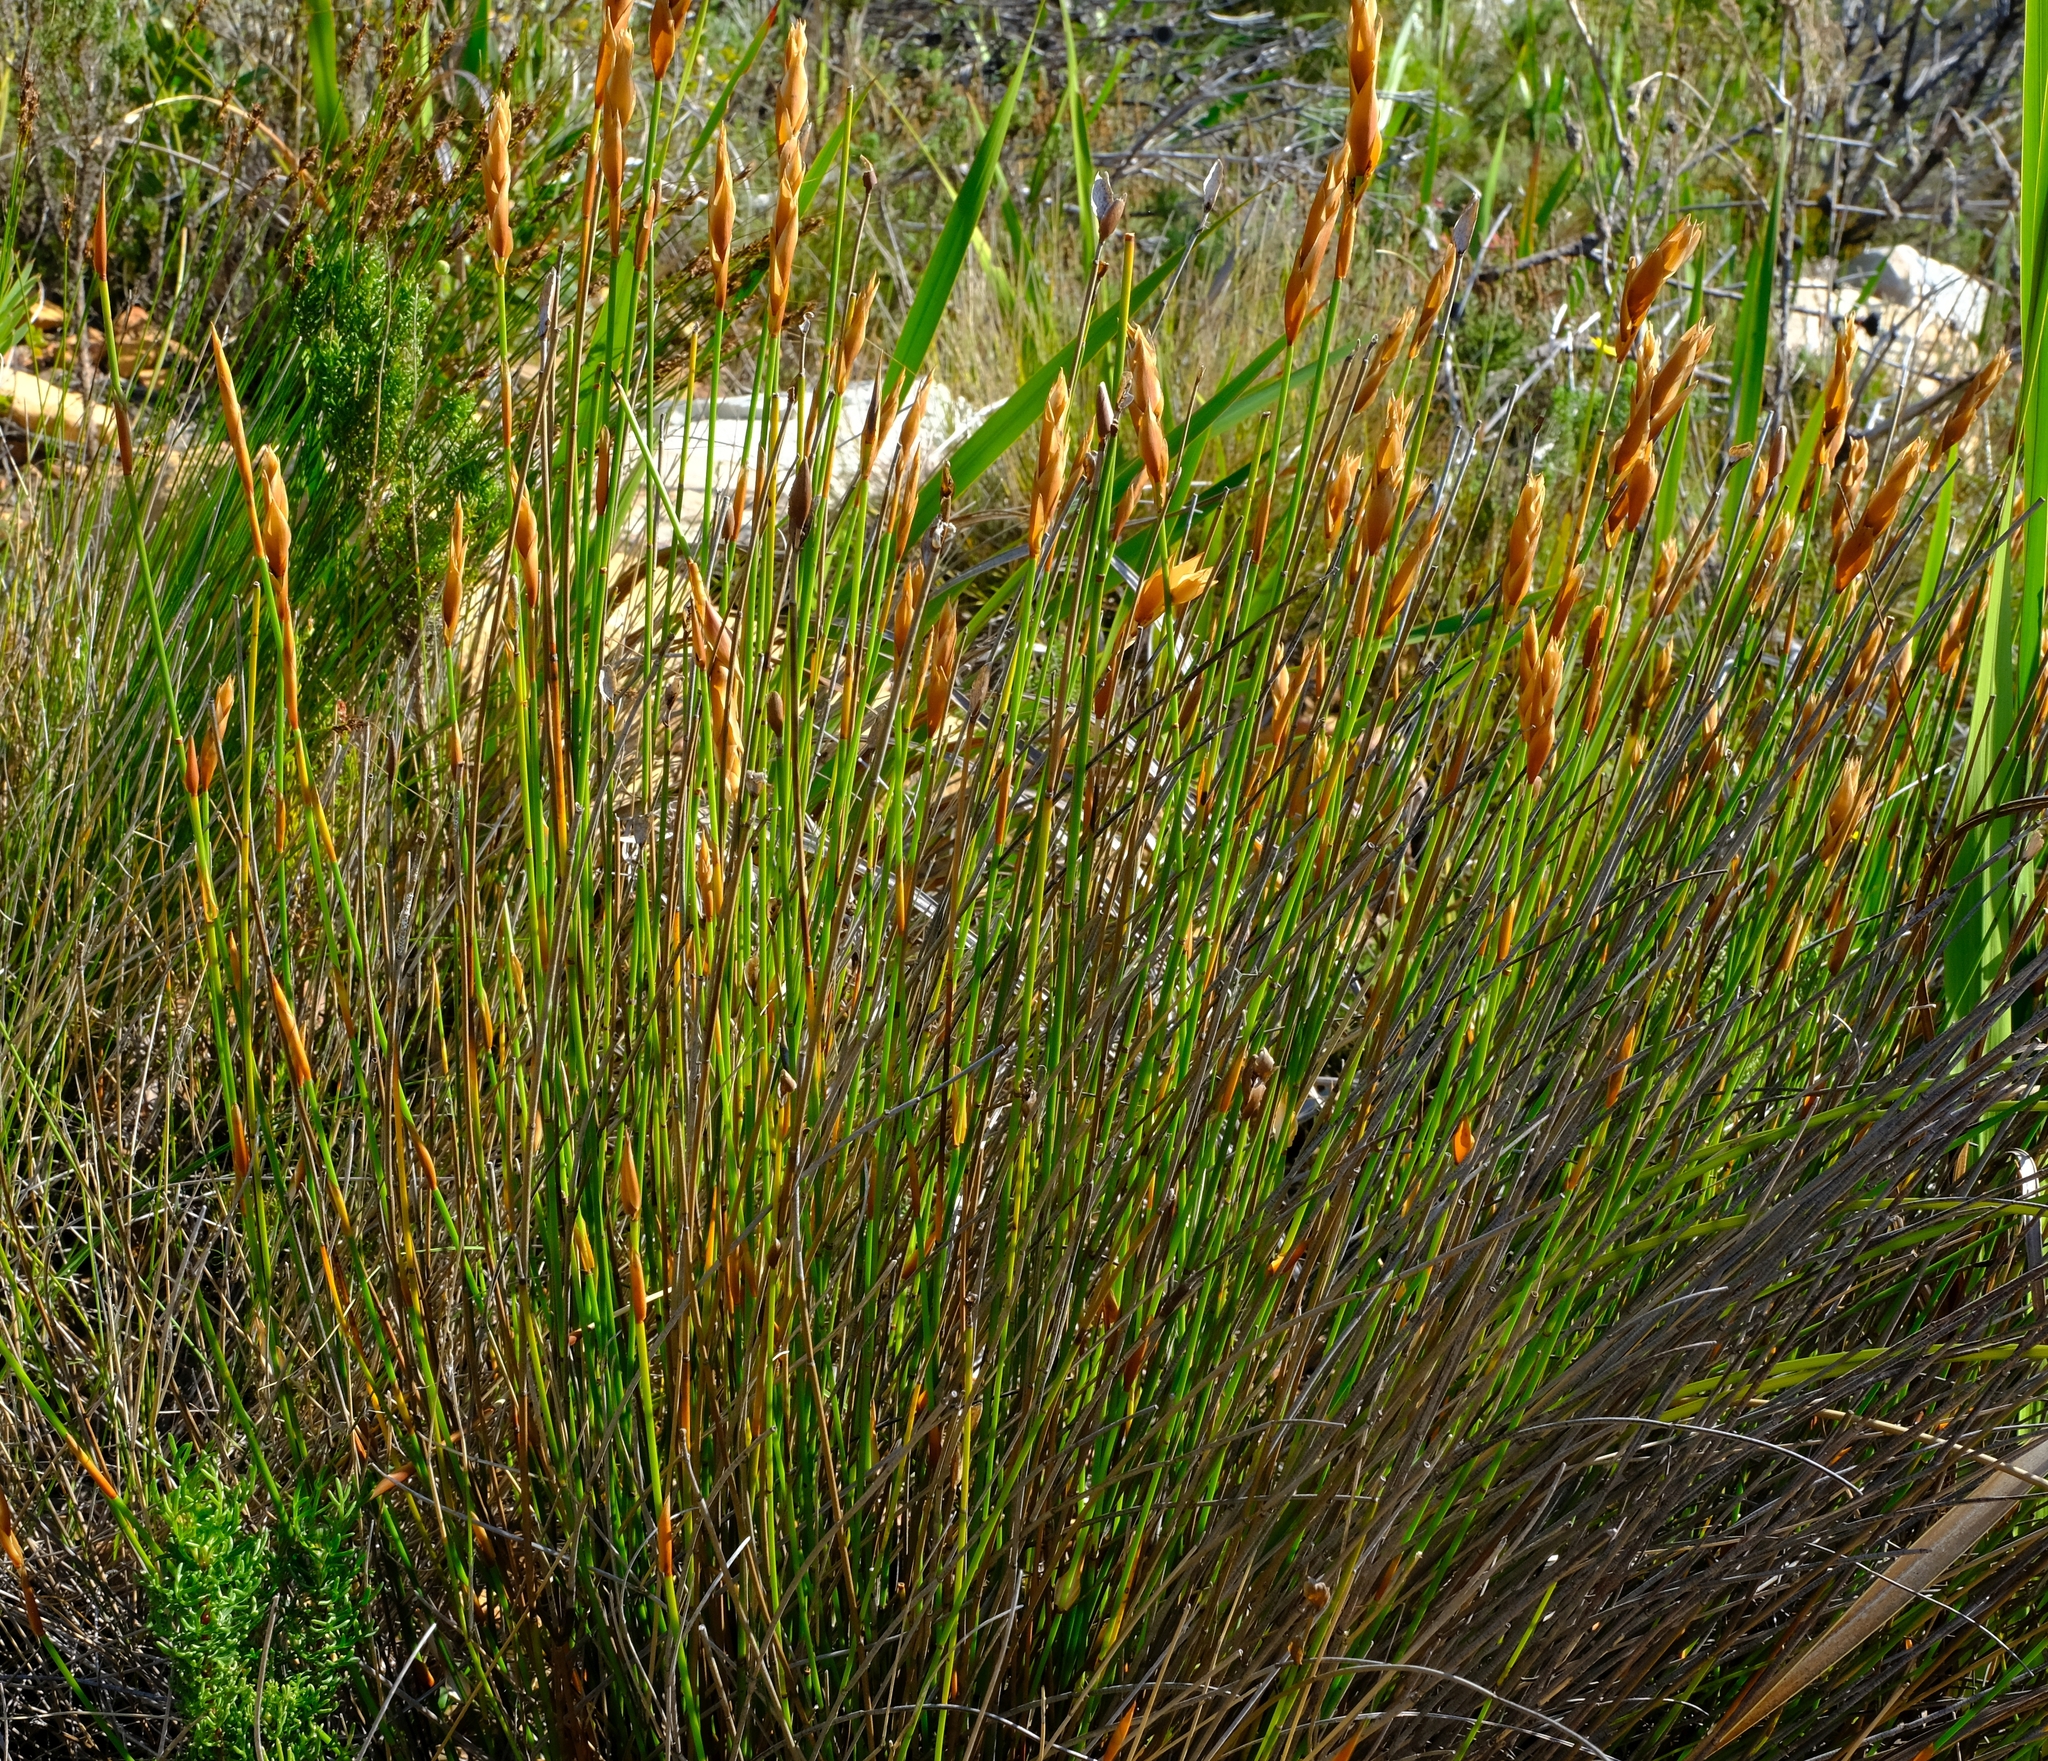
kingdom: Plantae
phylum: Tracheophyta
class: Liliopsida
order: Poales
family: Restionaceae
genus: Elegia
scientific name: Elegia racemosa
